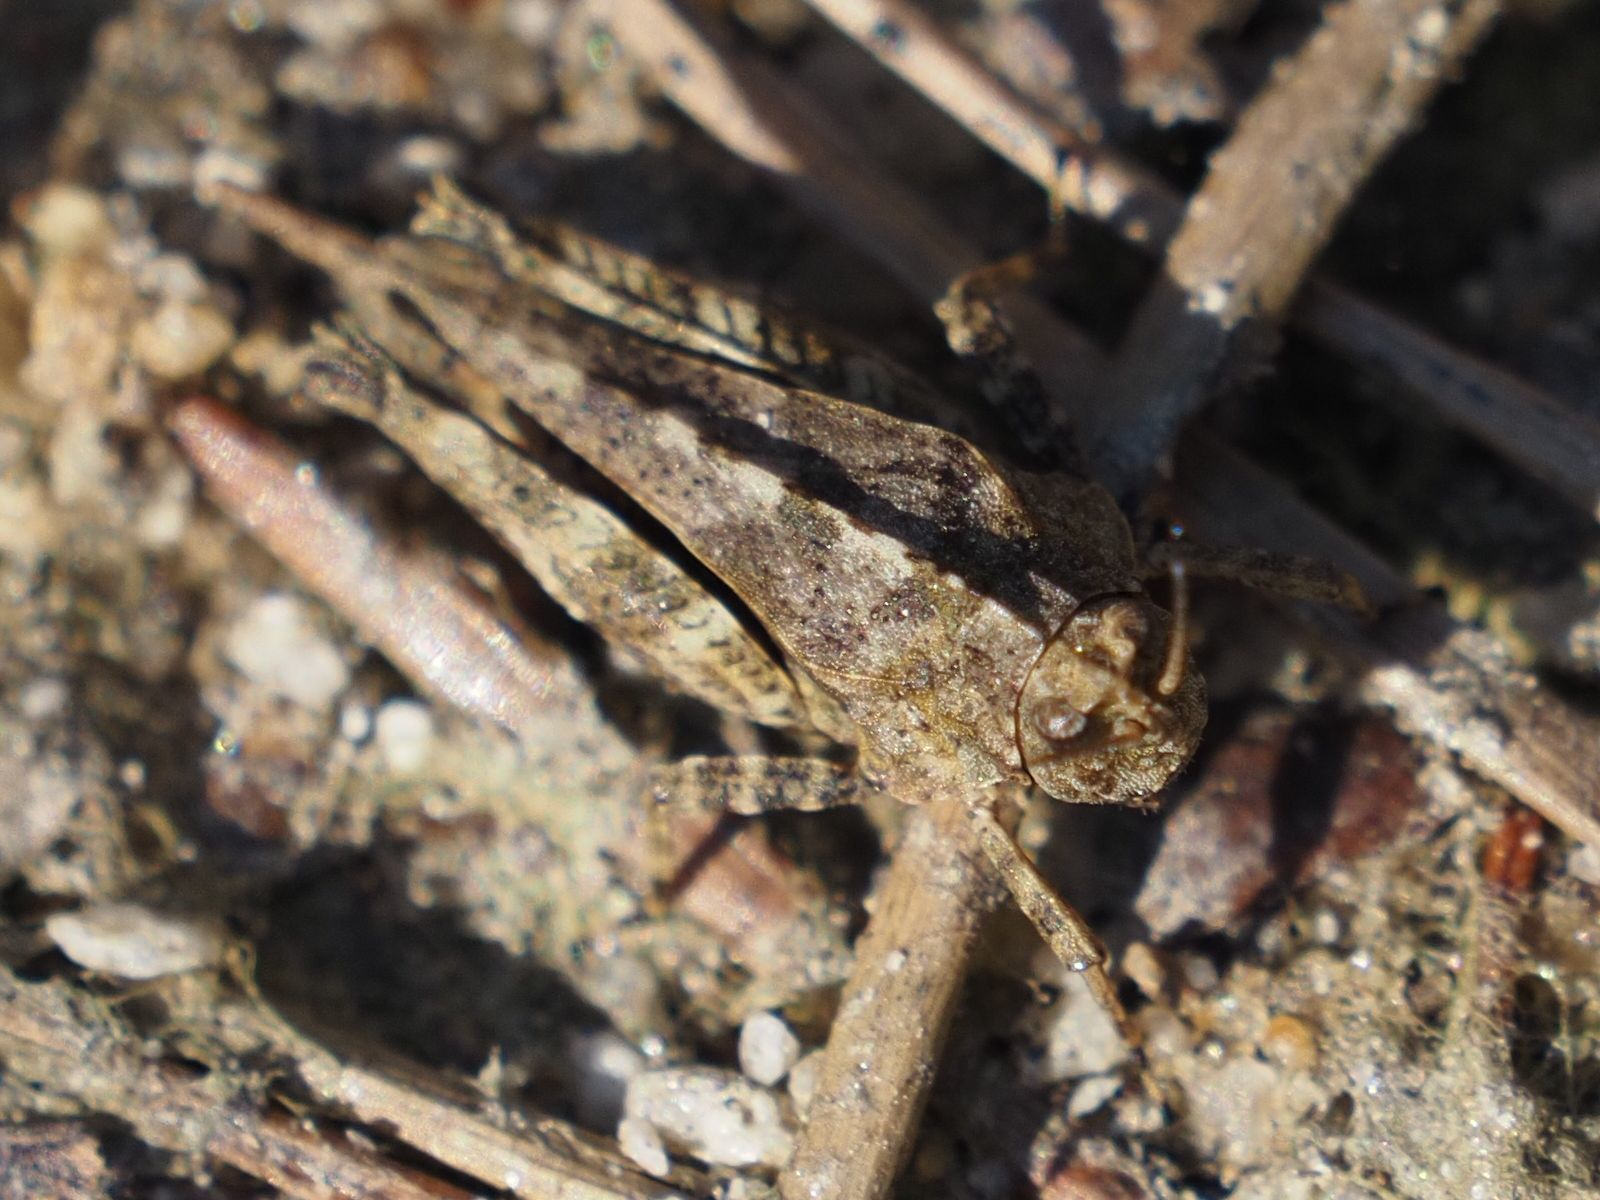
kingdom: Animalia
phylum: Arthropoda
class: Insecta
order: Orthoptera
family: Tetrigidae
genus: Tetrix
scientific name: Tetrix undulata
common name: Common groundhopper
